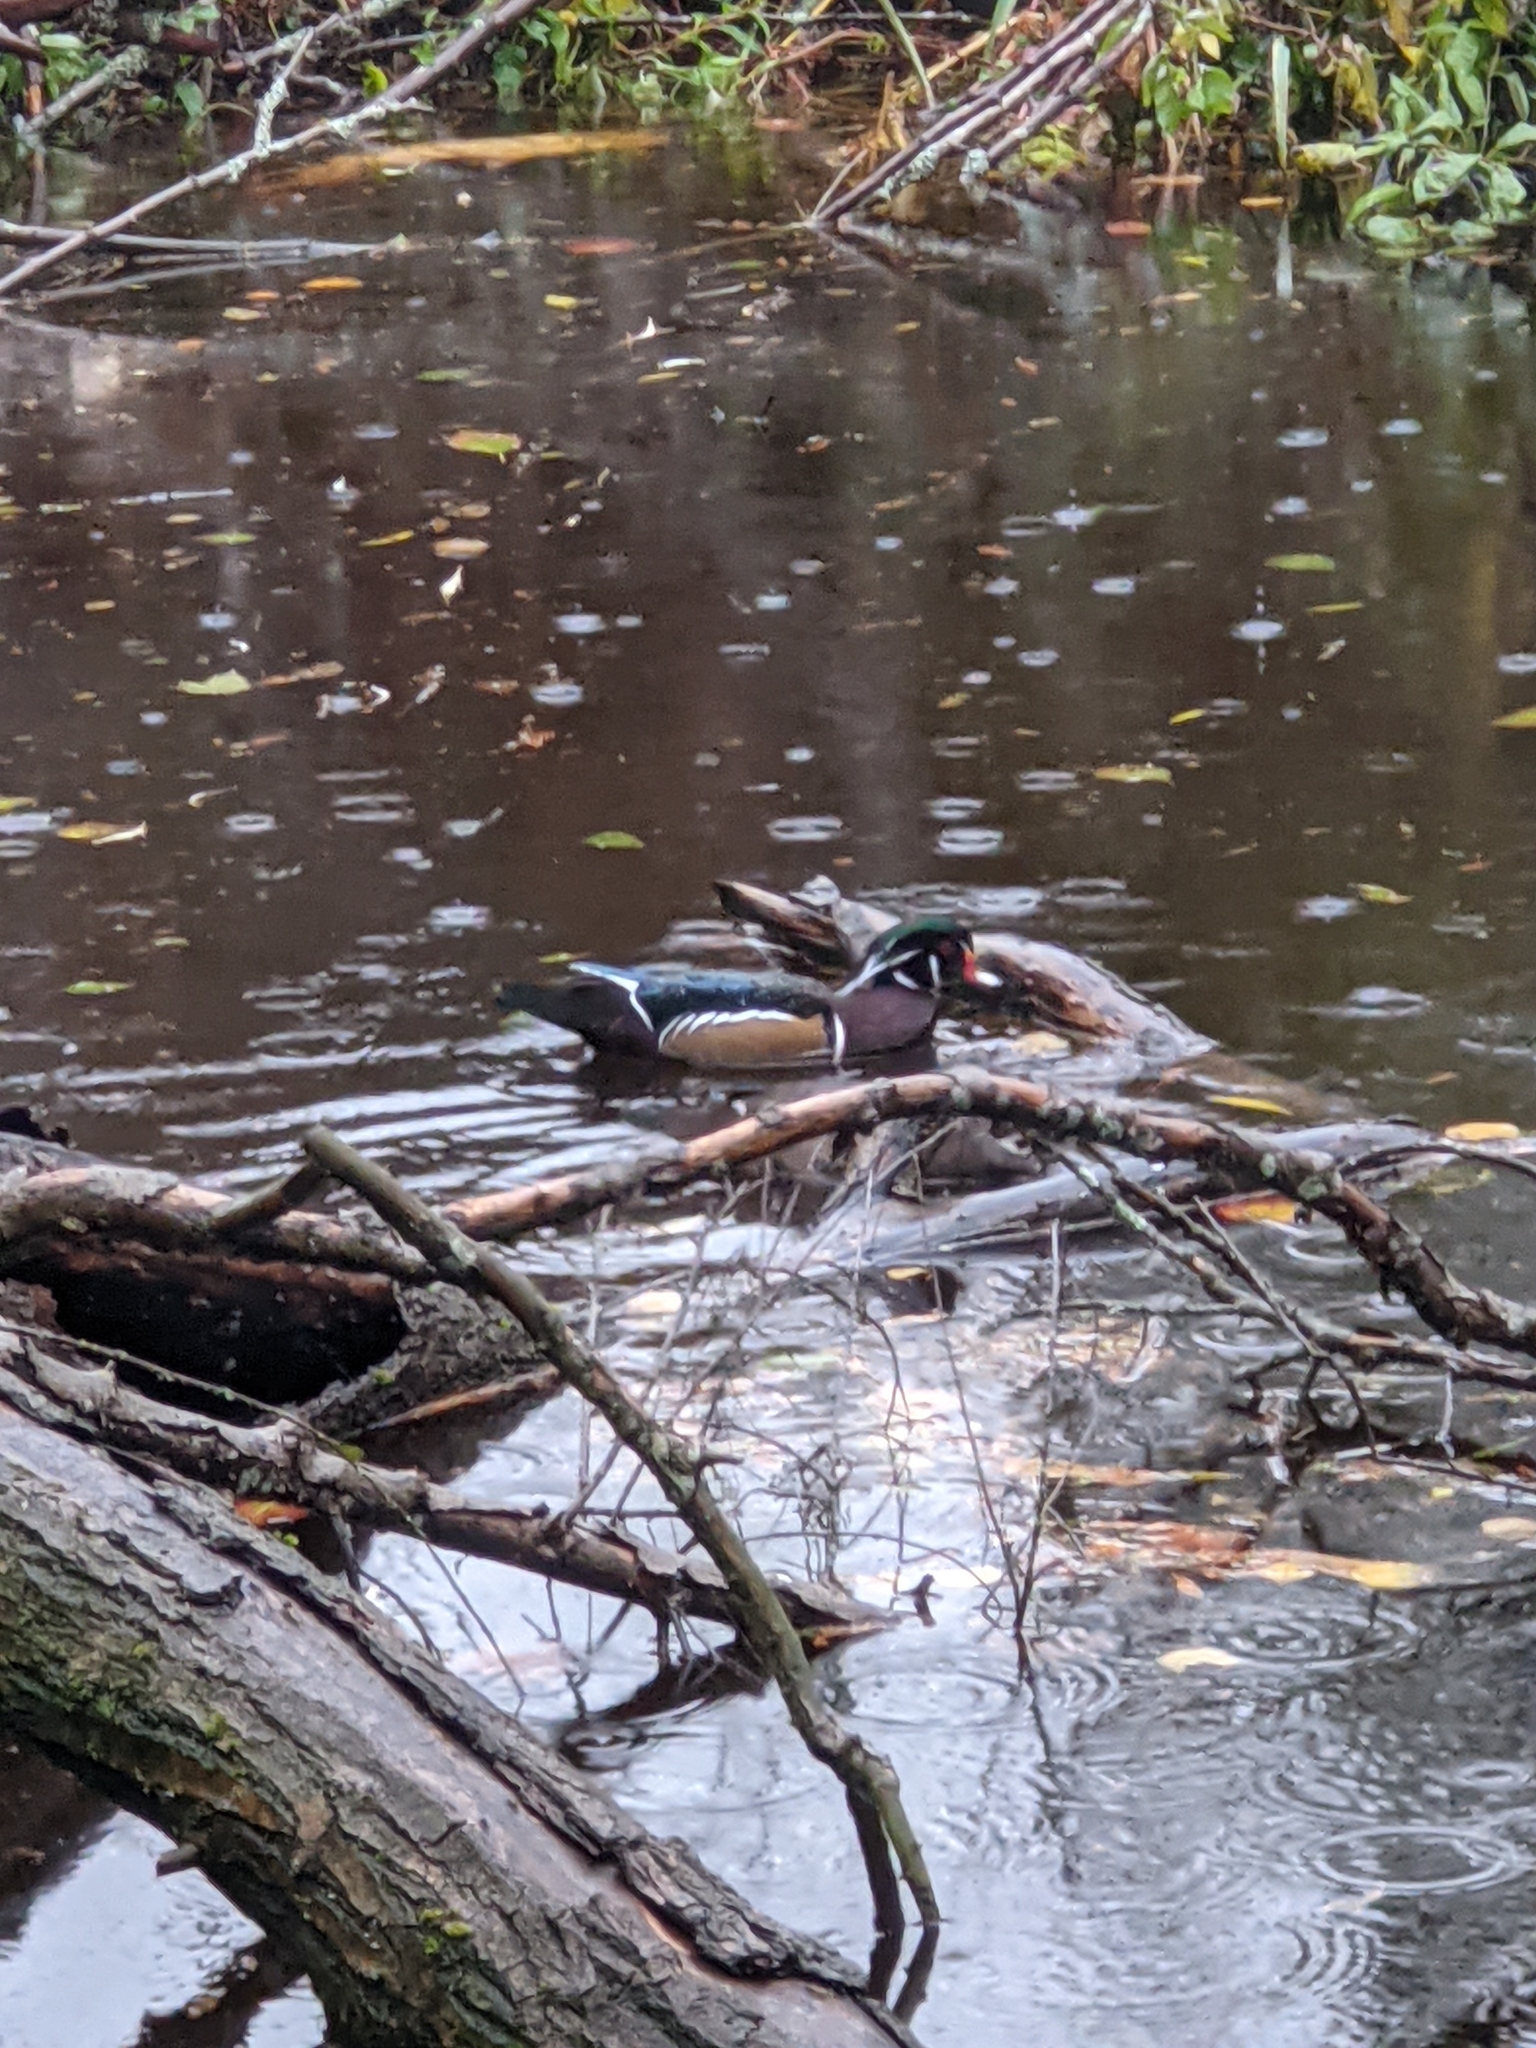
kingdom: Animalia
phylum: Chordata
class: Aves
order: Anseriformes
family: Anatidae
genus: Aix
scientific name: Aix sponsa
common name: Wood duck
